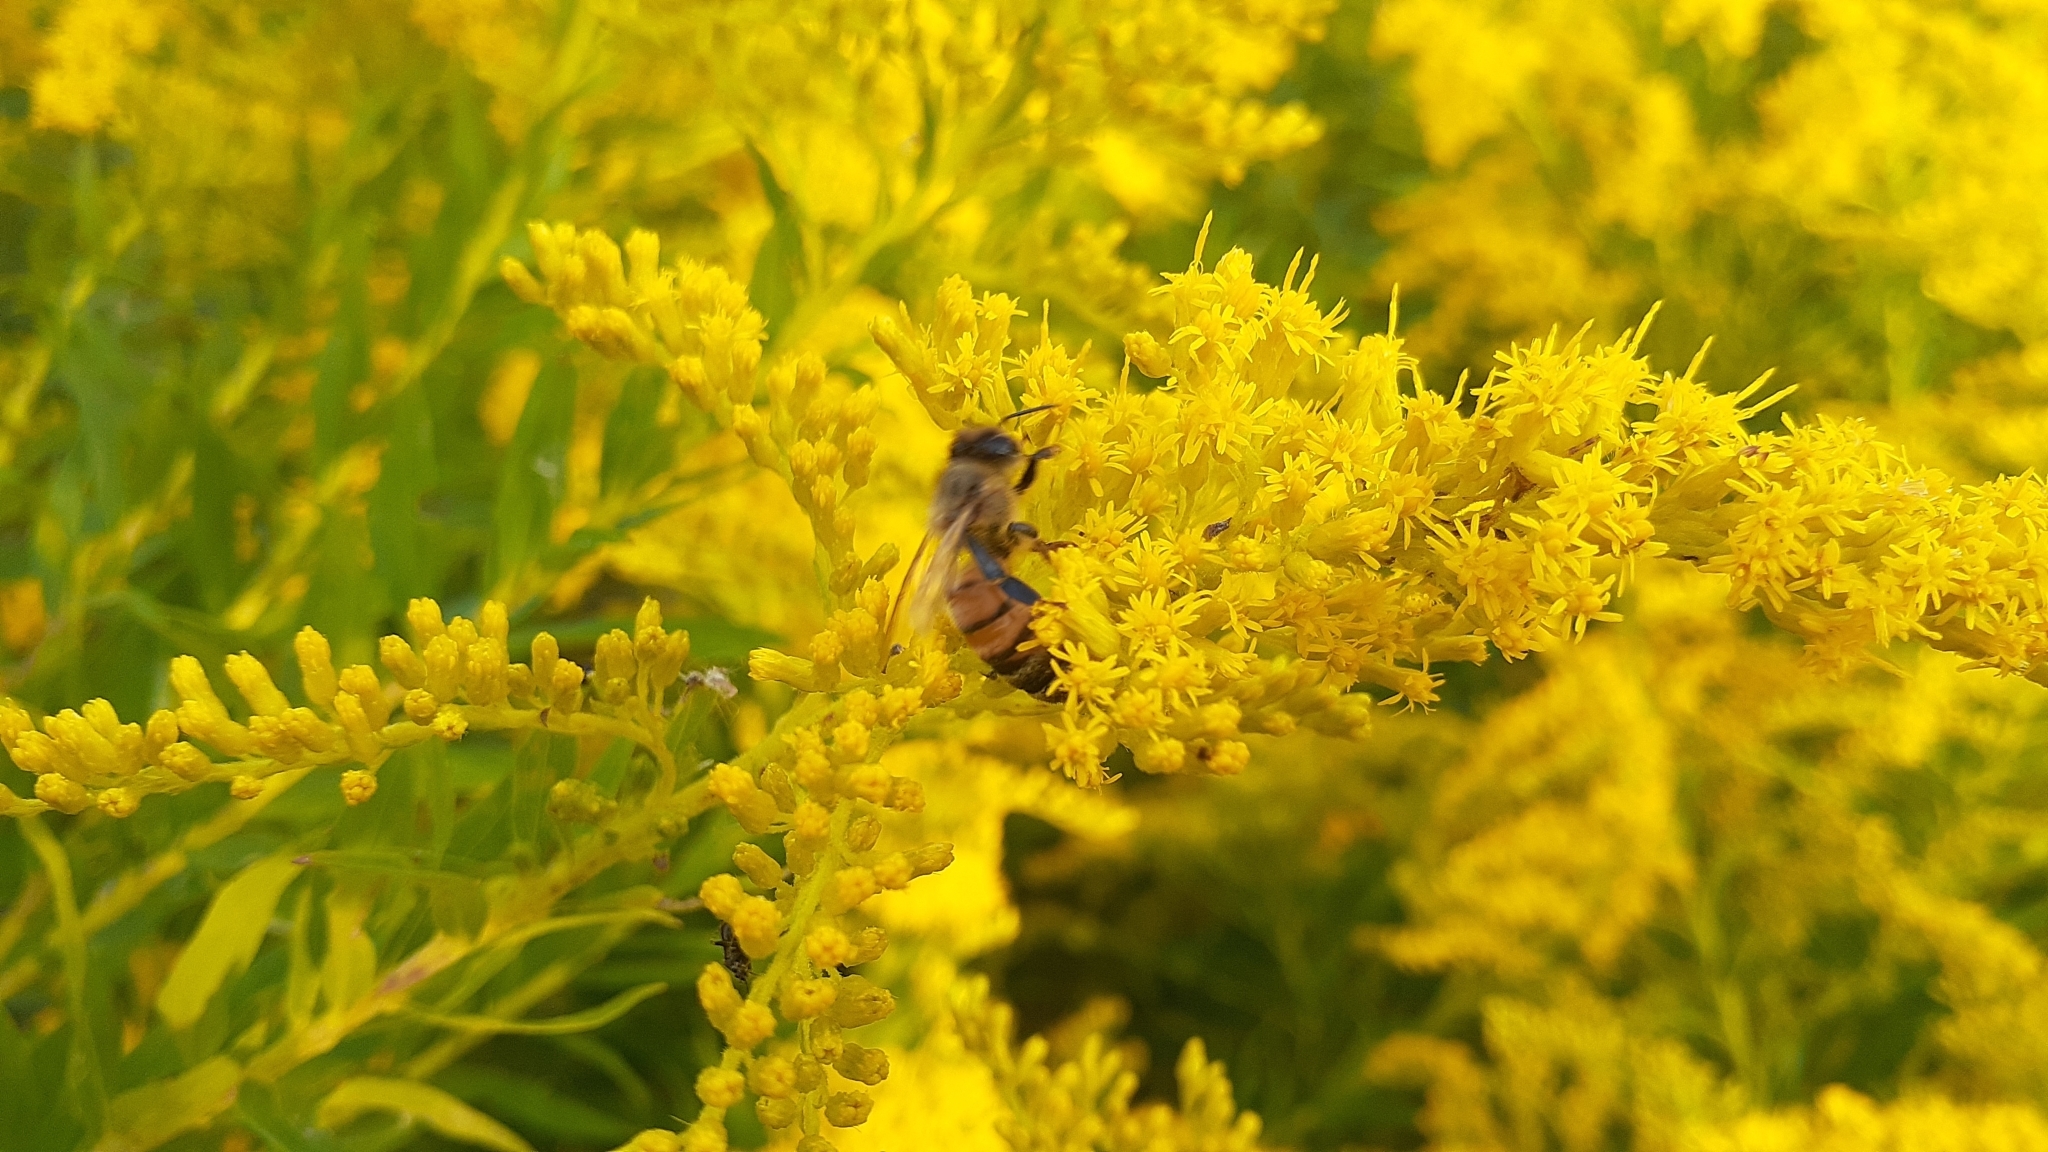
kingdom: Animalia
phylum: Arthropoda
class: Insecta
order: Hymenoptera
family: Apidae
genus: Apis
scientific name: Apis mellifera
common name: Honey bee
